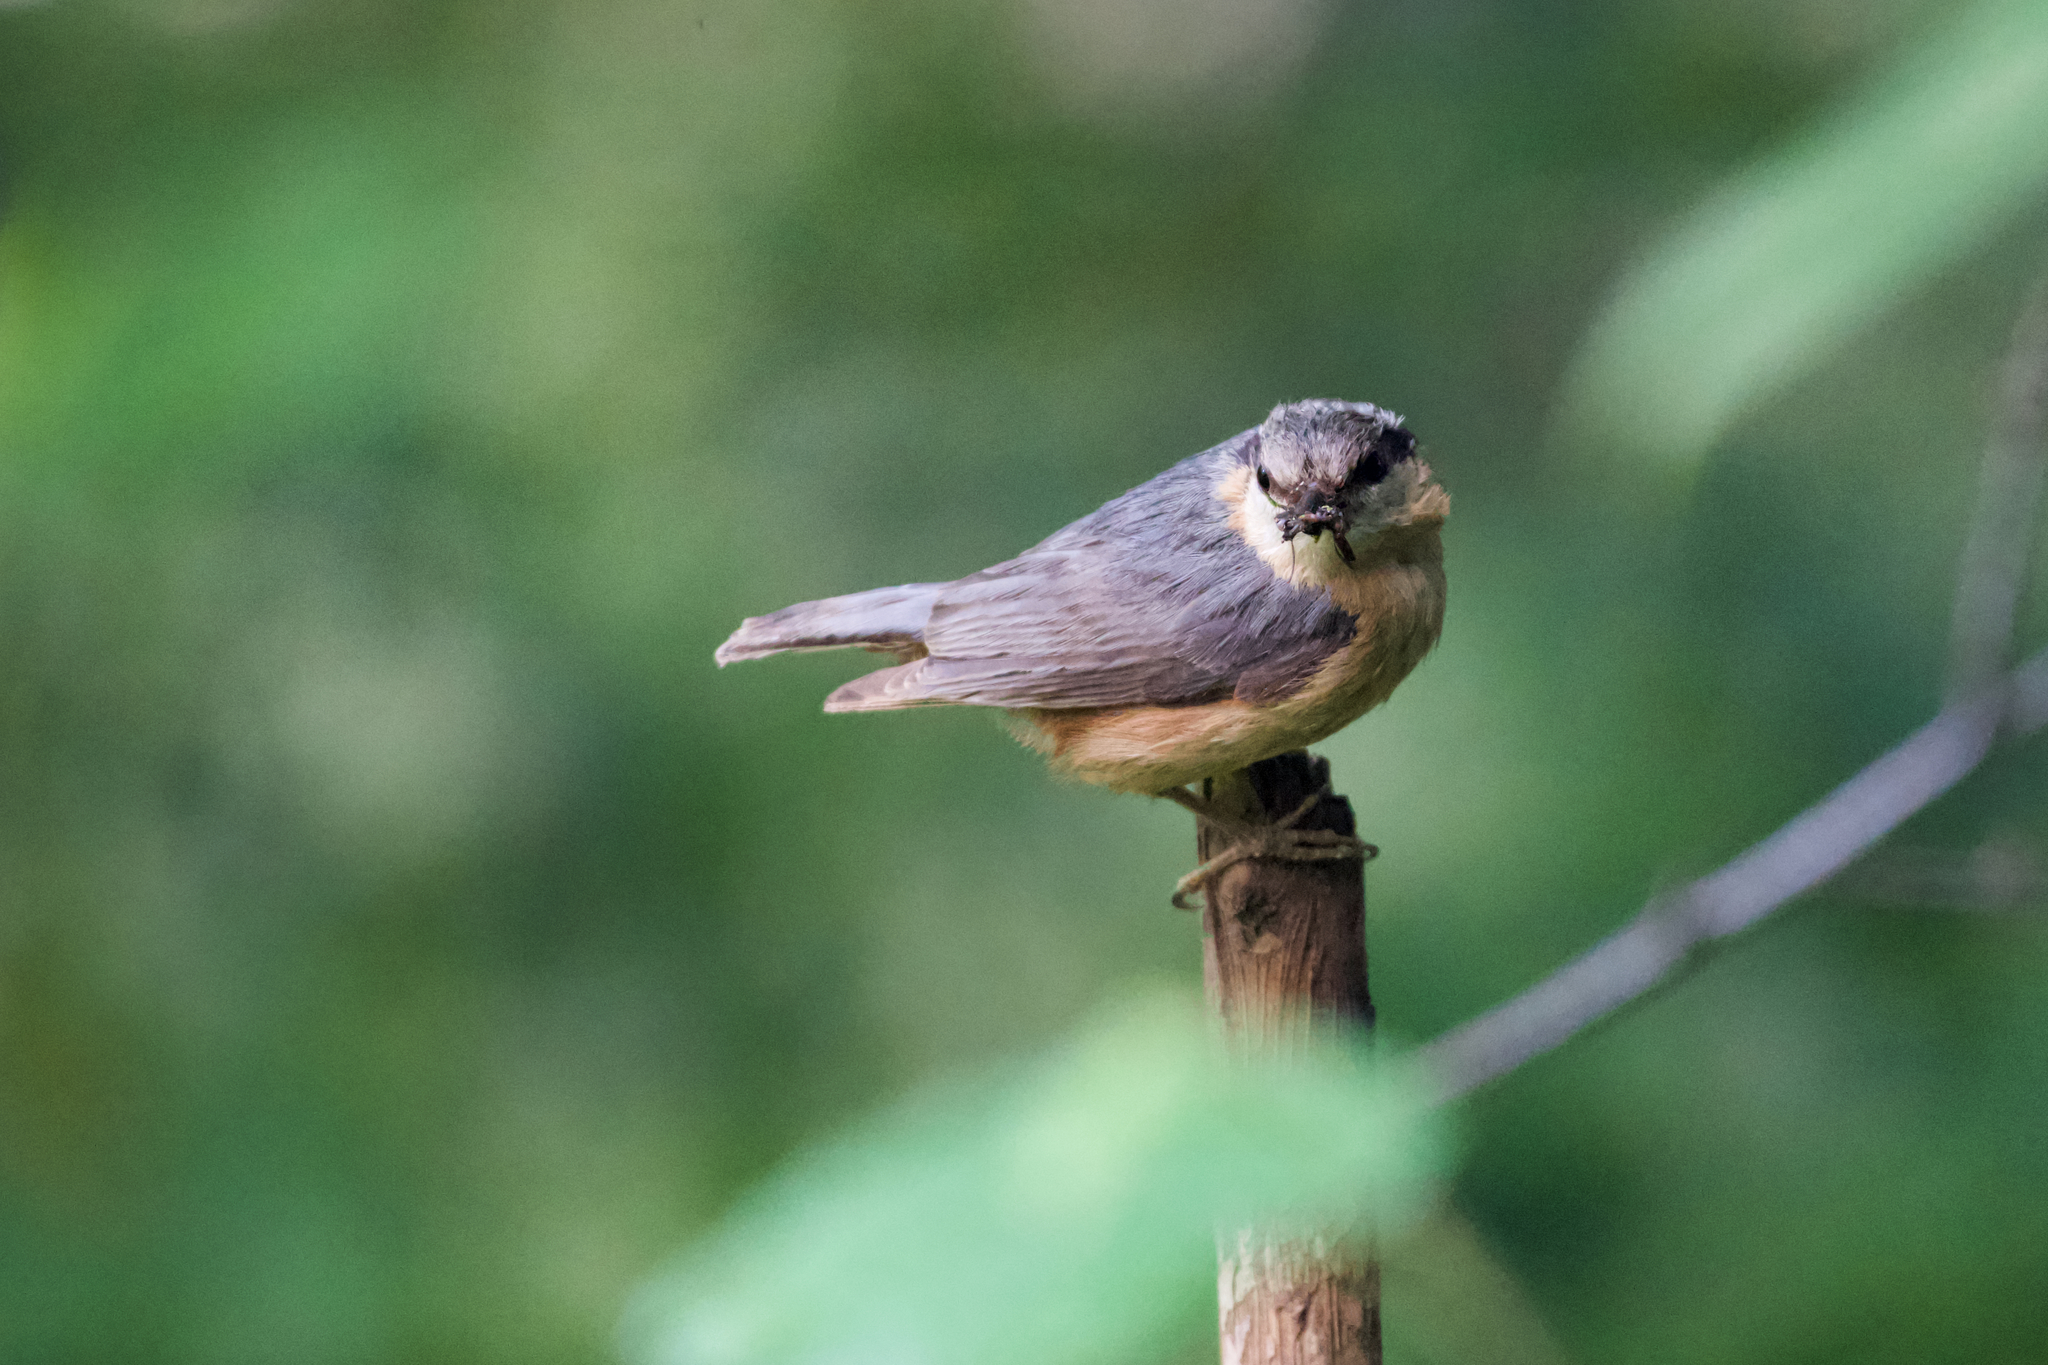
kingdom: Animalia
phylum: Chordata
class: Aves
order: Passeriformes
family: Sittidae
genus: Sitta
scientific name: Sitta europaea
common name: Eurasian nuthatch
